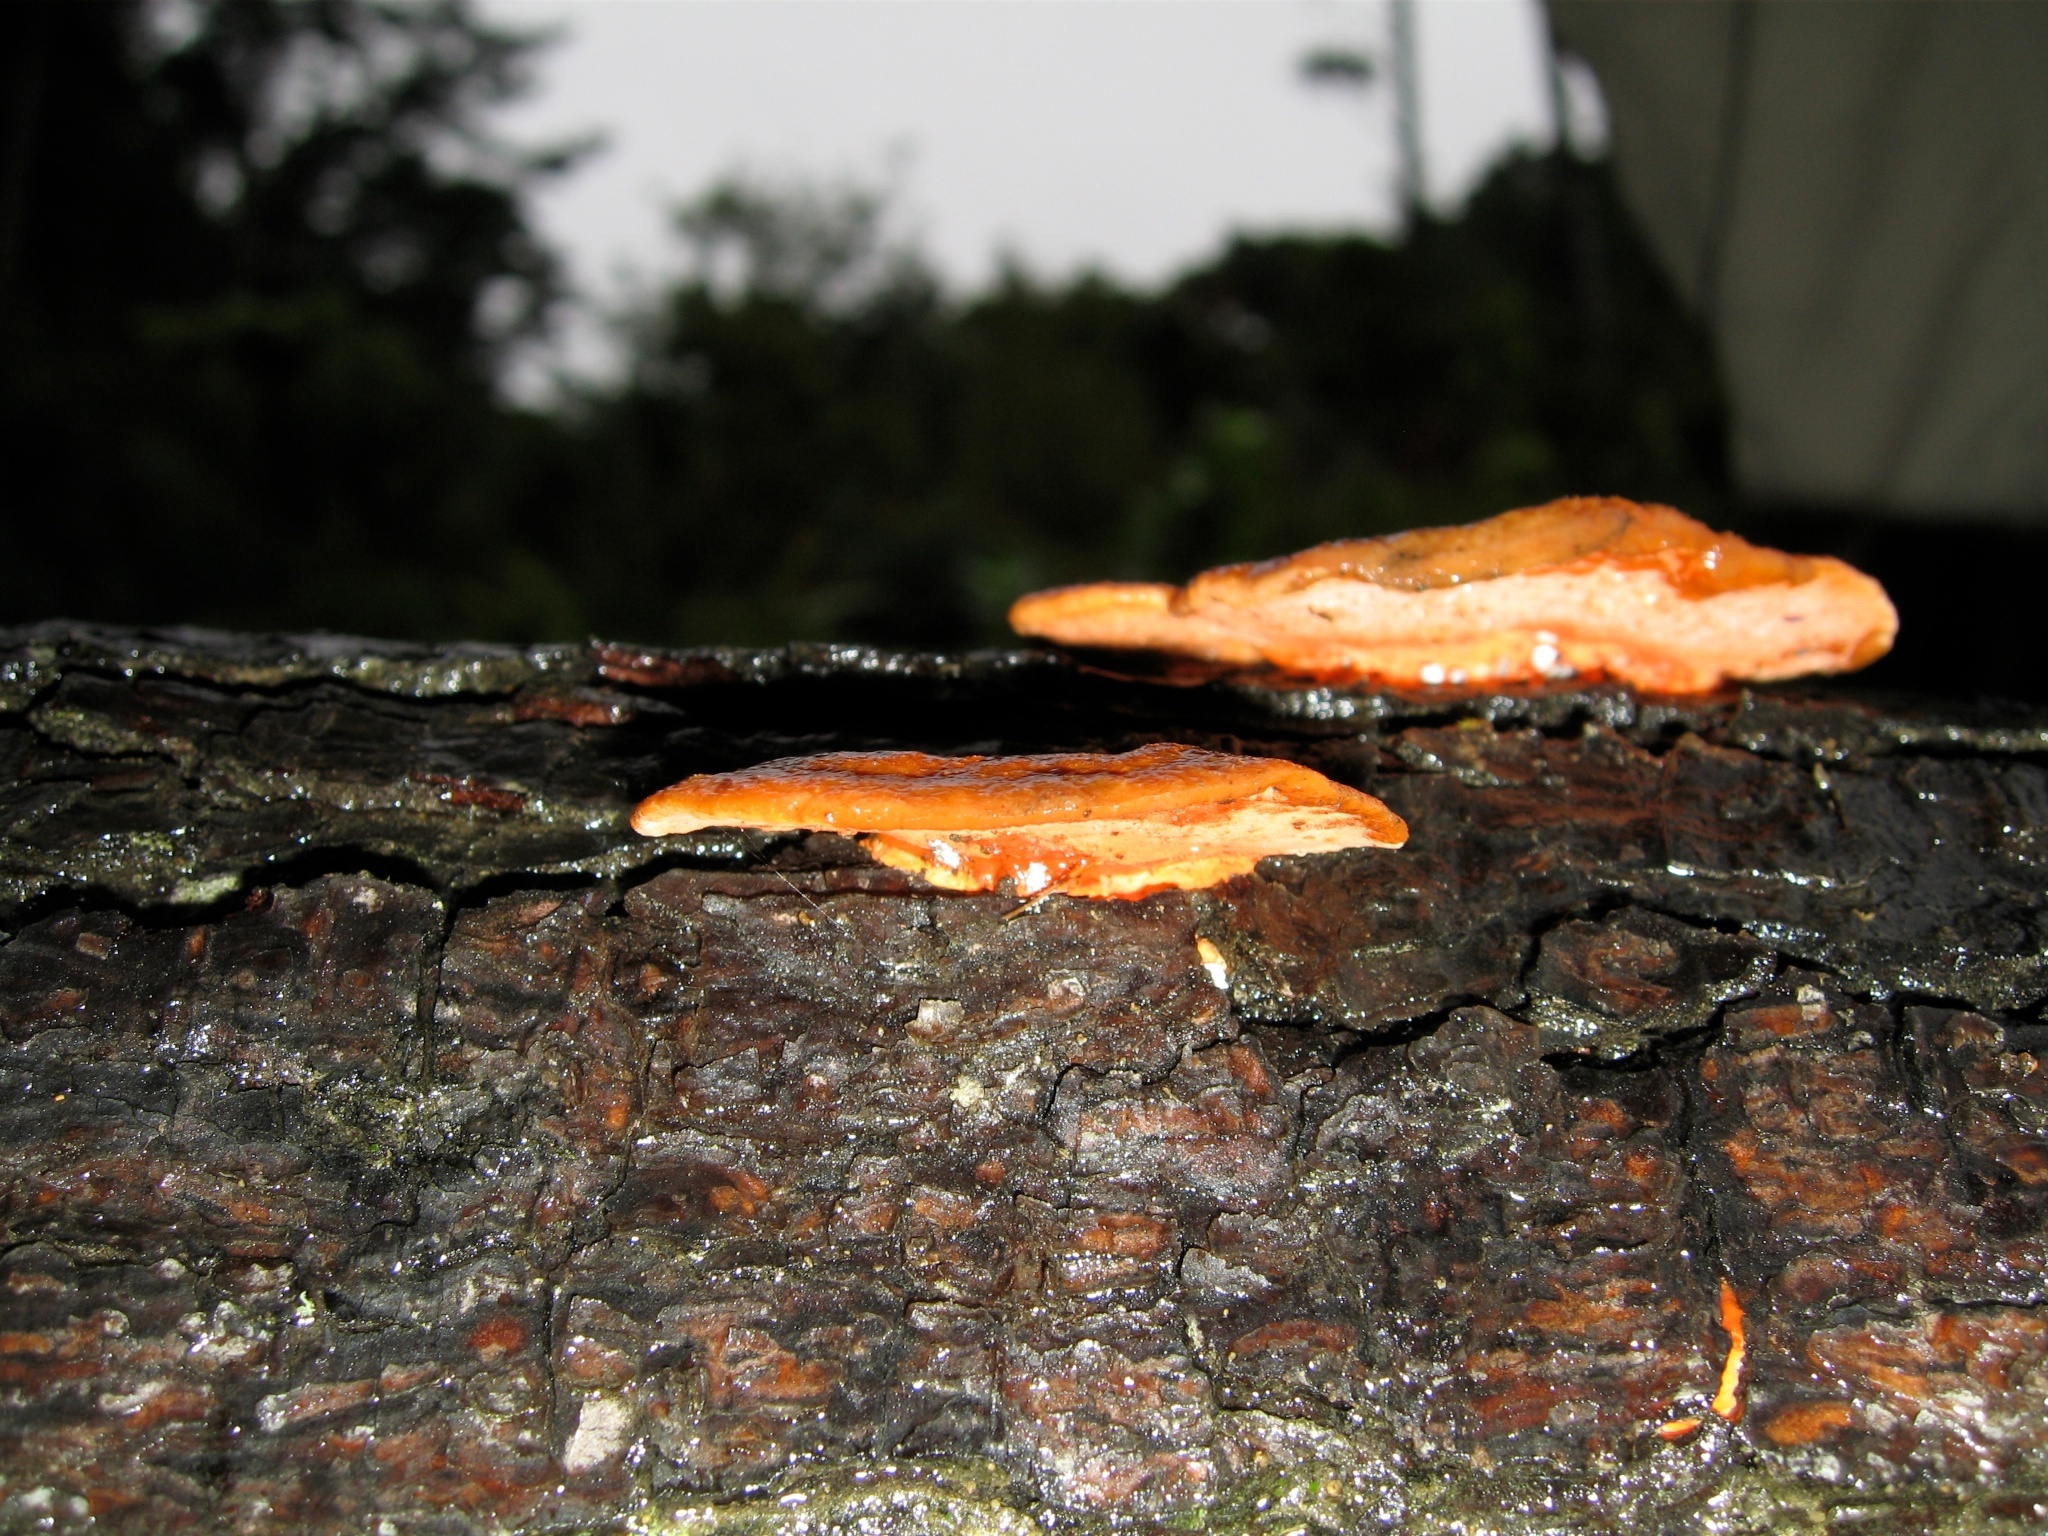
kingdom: Fungi
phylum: Basidiomycota
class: Agaricomycetes
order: Polyporales
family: Polyporaceae
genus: Trametes
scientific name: Trametes coccinea
